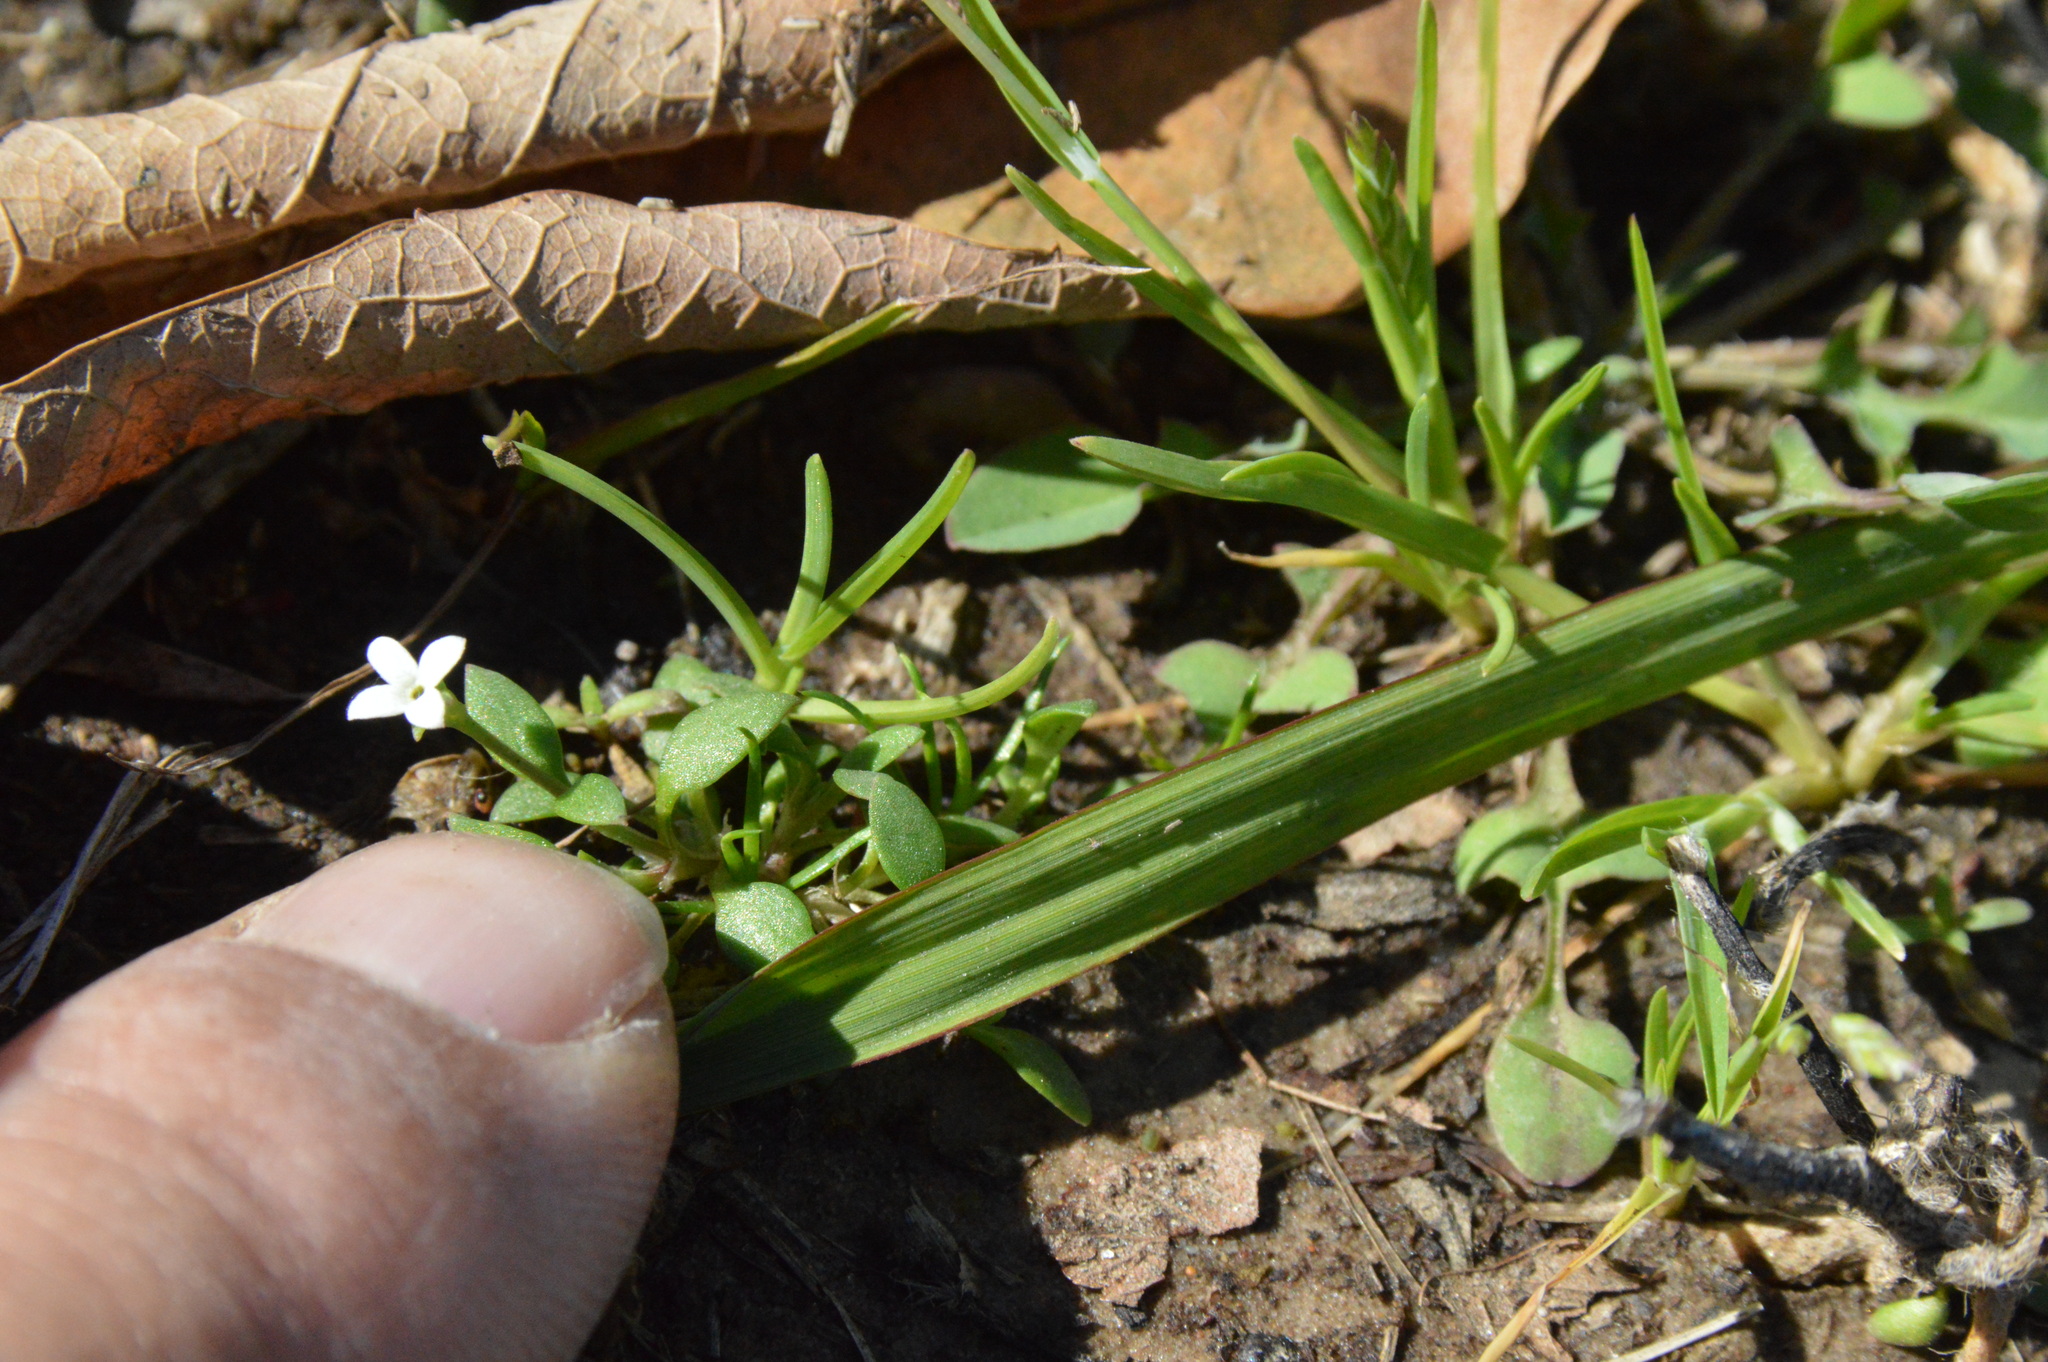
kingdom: Plantae
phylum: Tracheophyta
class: Magnoliopsida
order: Gentianales
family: Rubiaceae
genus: Houstonia
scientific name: Houstonia micrantha
